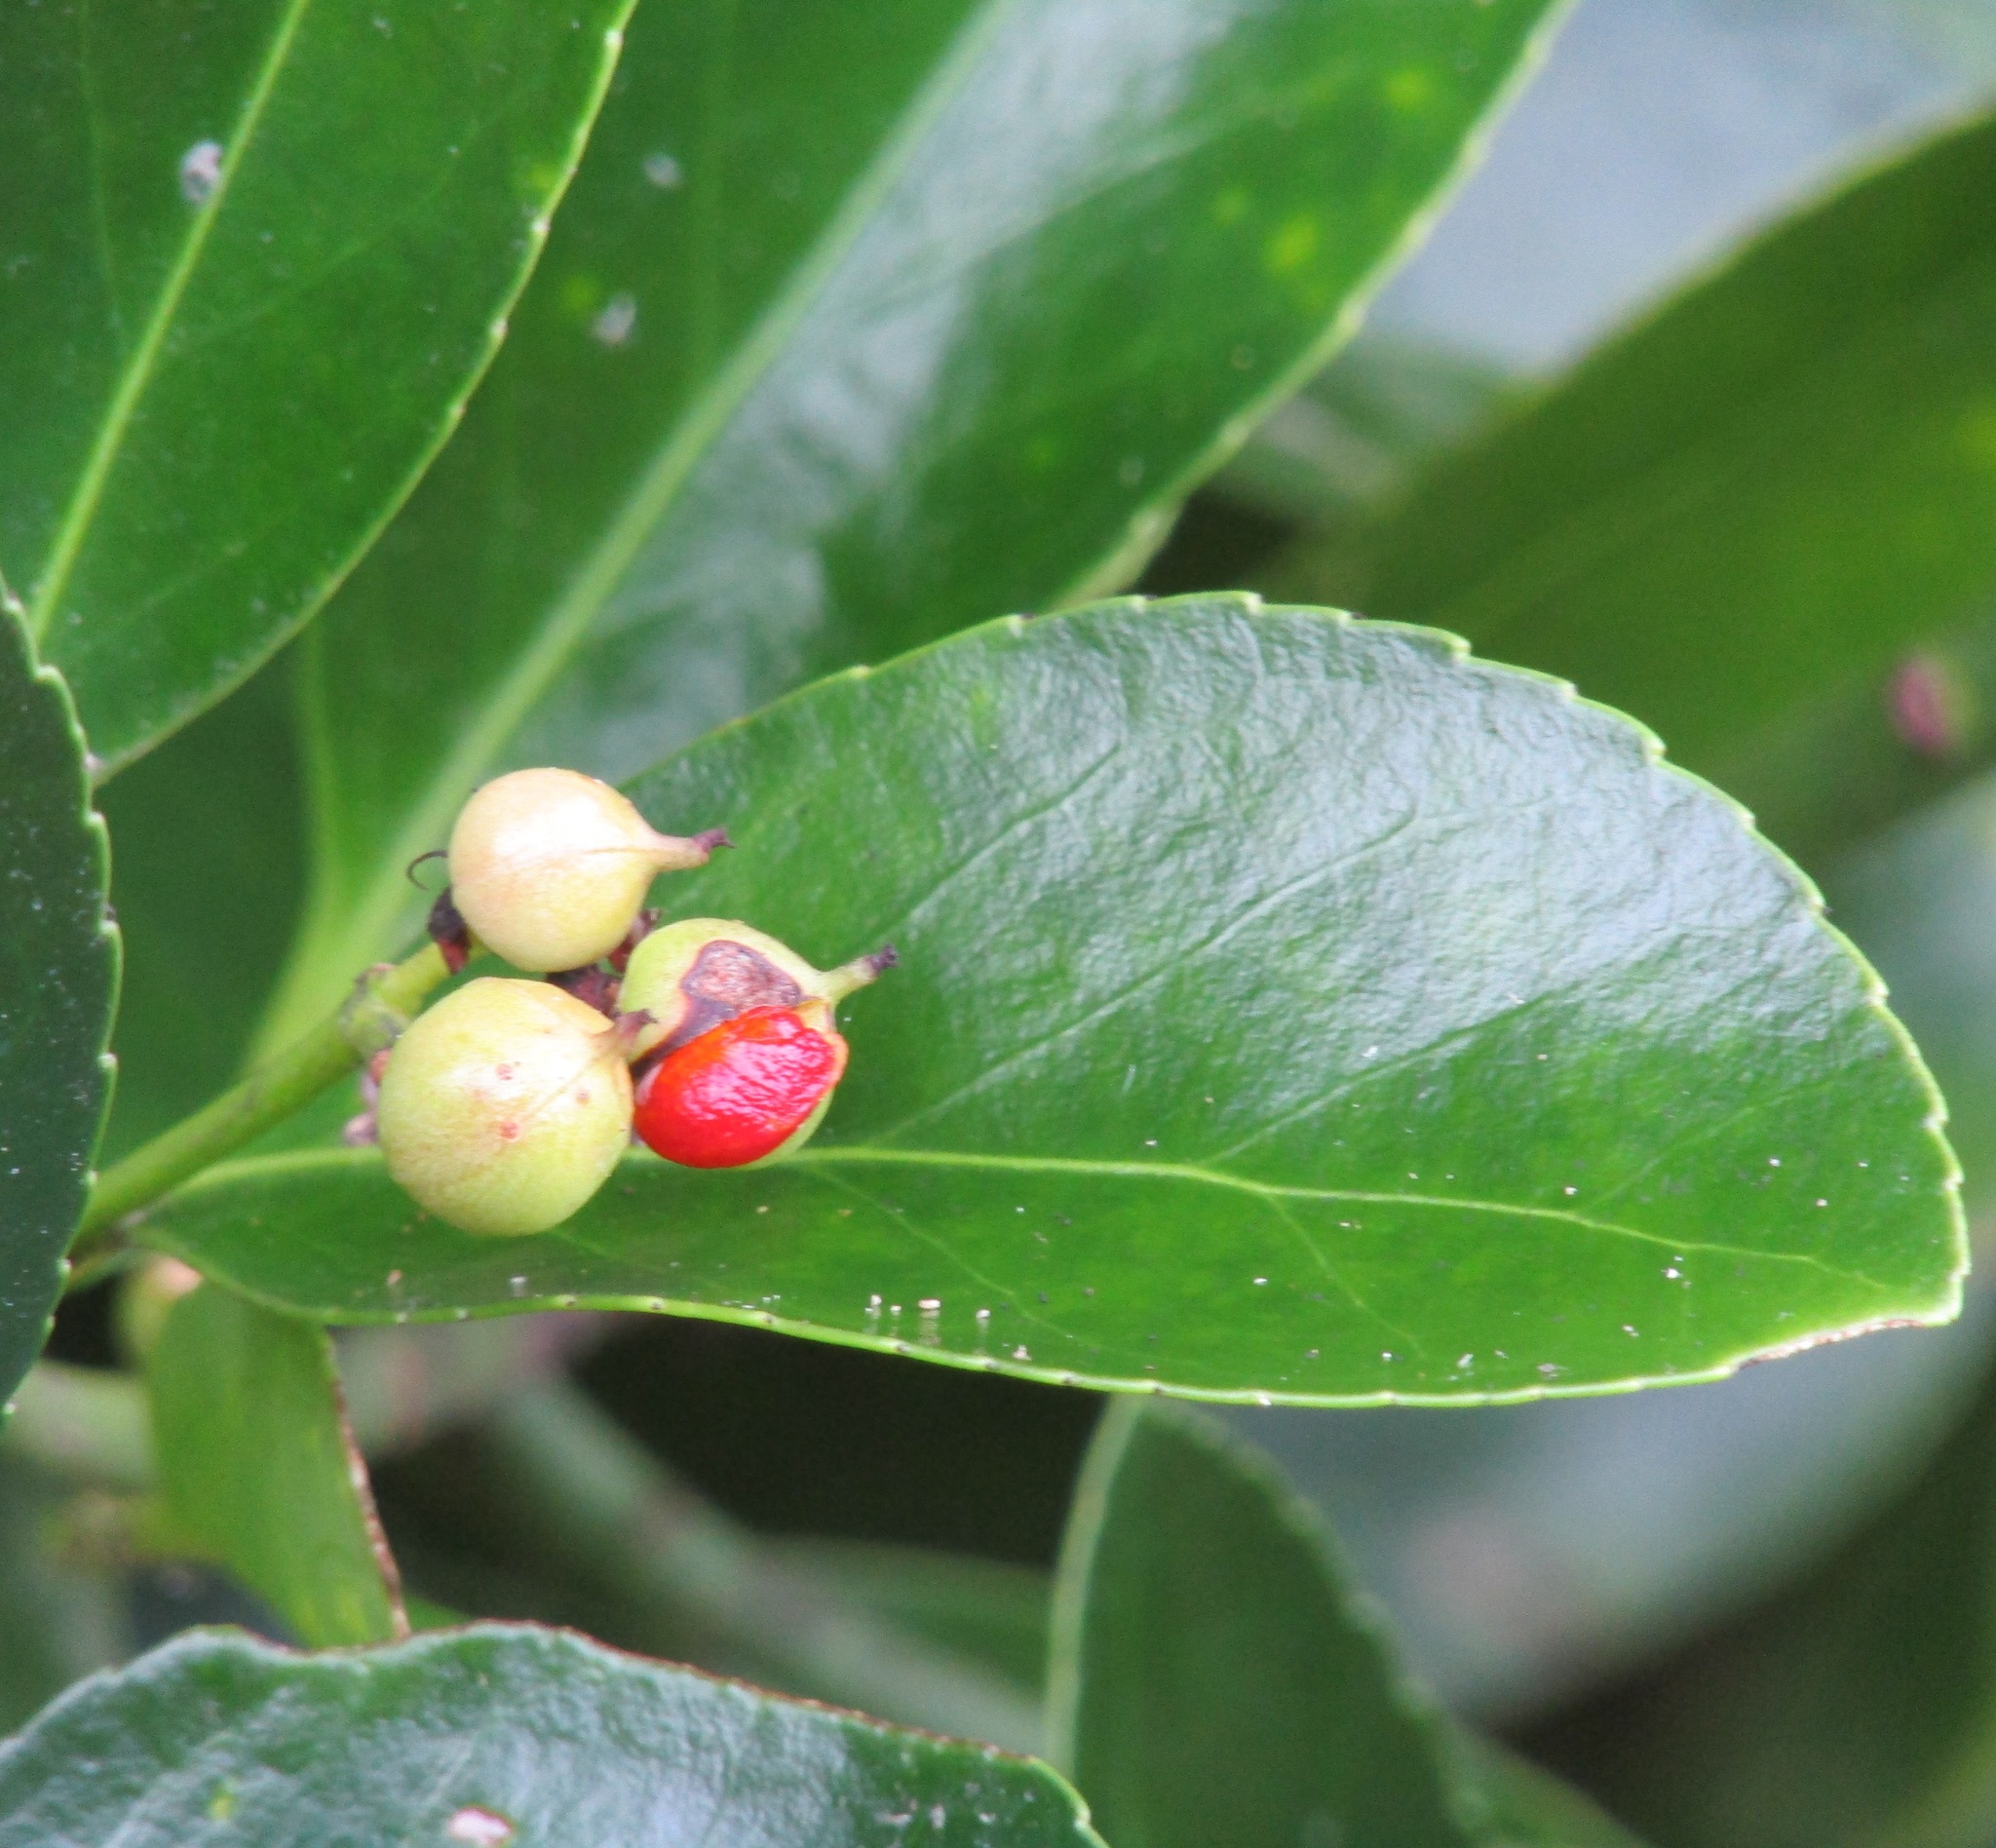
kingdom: Plantae
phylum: Tracheophyta
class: Magnoliopsida
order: Celastrales
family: Celastraceae
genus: Euonymus
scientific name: Euonymus japonicus
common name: Japanese spindletree
